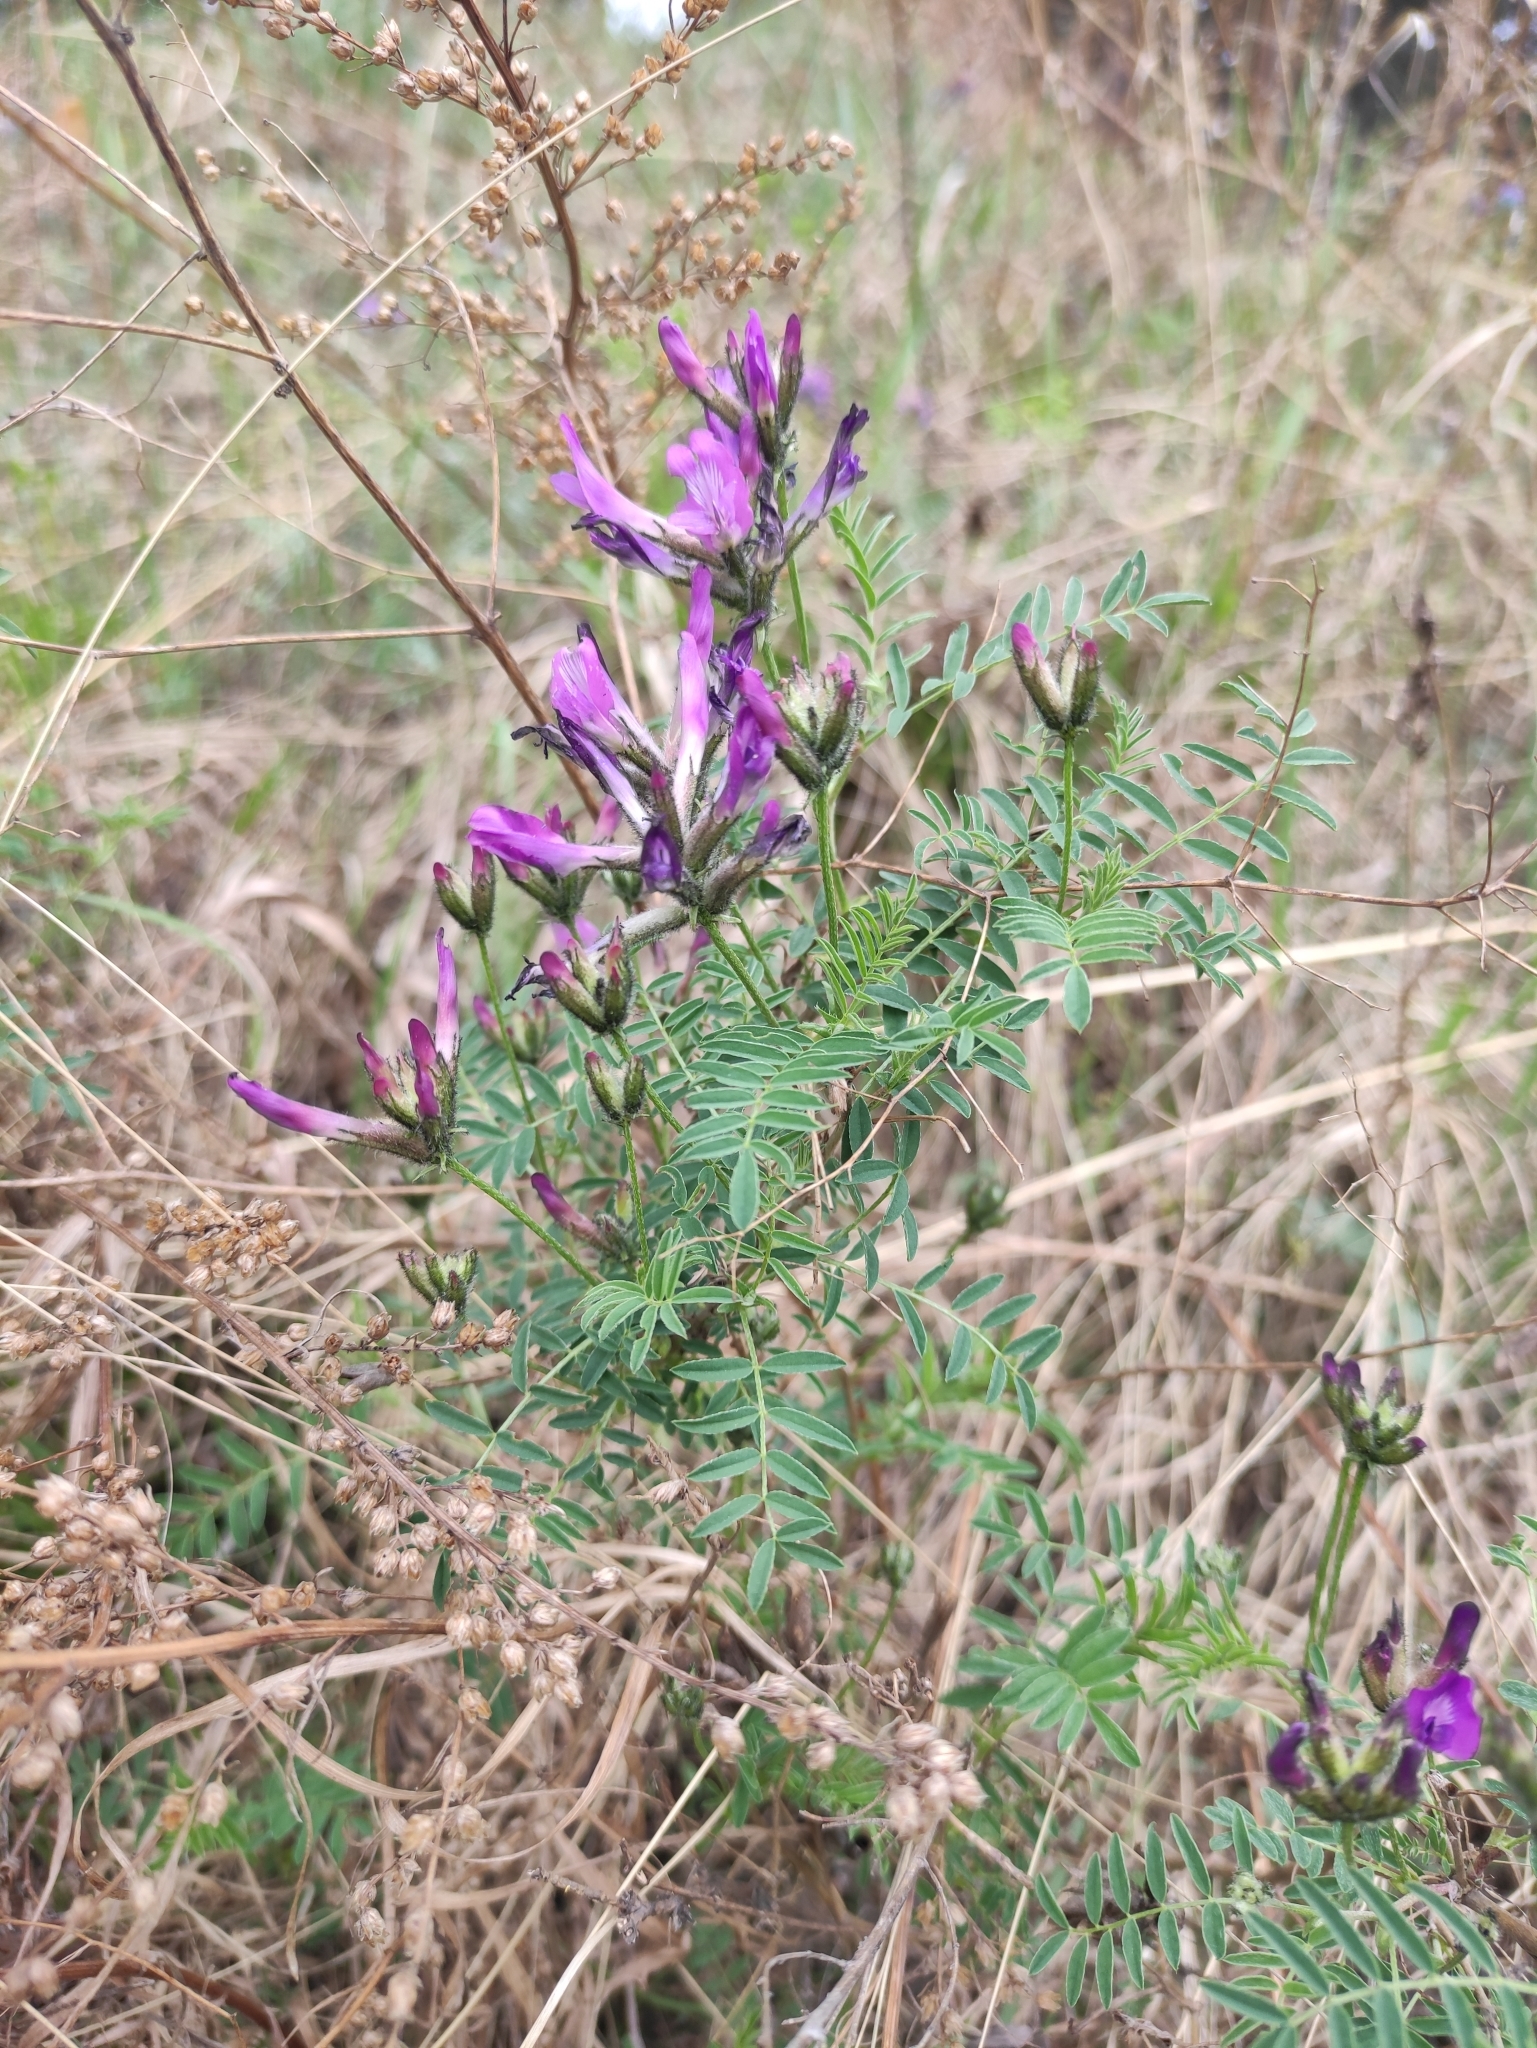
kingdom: Plantae
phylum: Tracheophyta
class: Magnoliopsida
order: Fabales
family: Fabaceae
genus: Astragalus
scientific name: Astragalus syriacus
